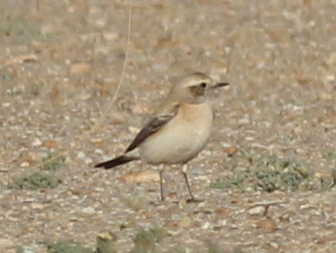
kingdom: Animalia
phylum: Chordata
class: Aves
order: Passeriformes
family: Muscicapidae
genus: Oenanthe
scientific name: Oenanthe deserti
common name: Desert wheatear
